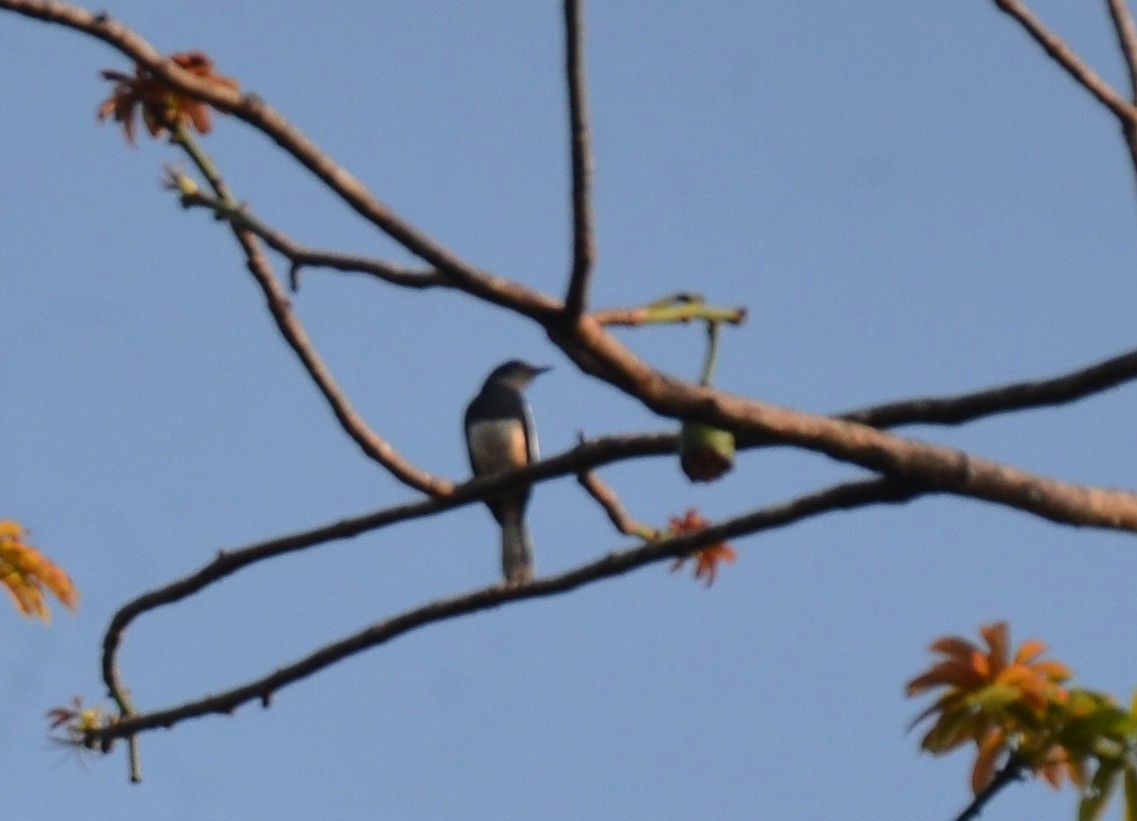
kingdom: Animalia
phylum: Chordata
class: Aves
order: Passeriformes
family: Muscicapidae
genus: Copsychus
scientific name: Copsychus saularis
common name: Oriental magpie-robin
